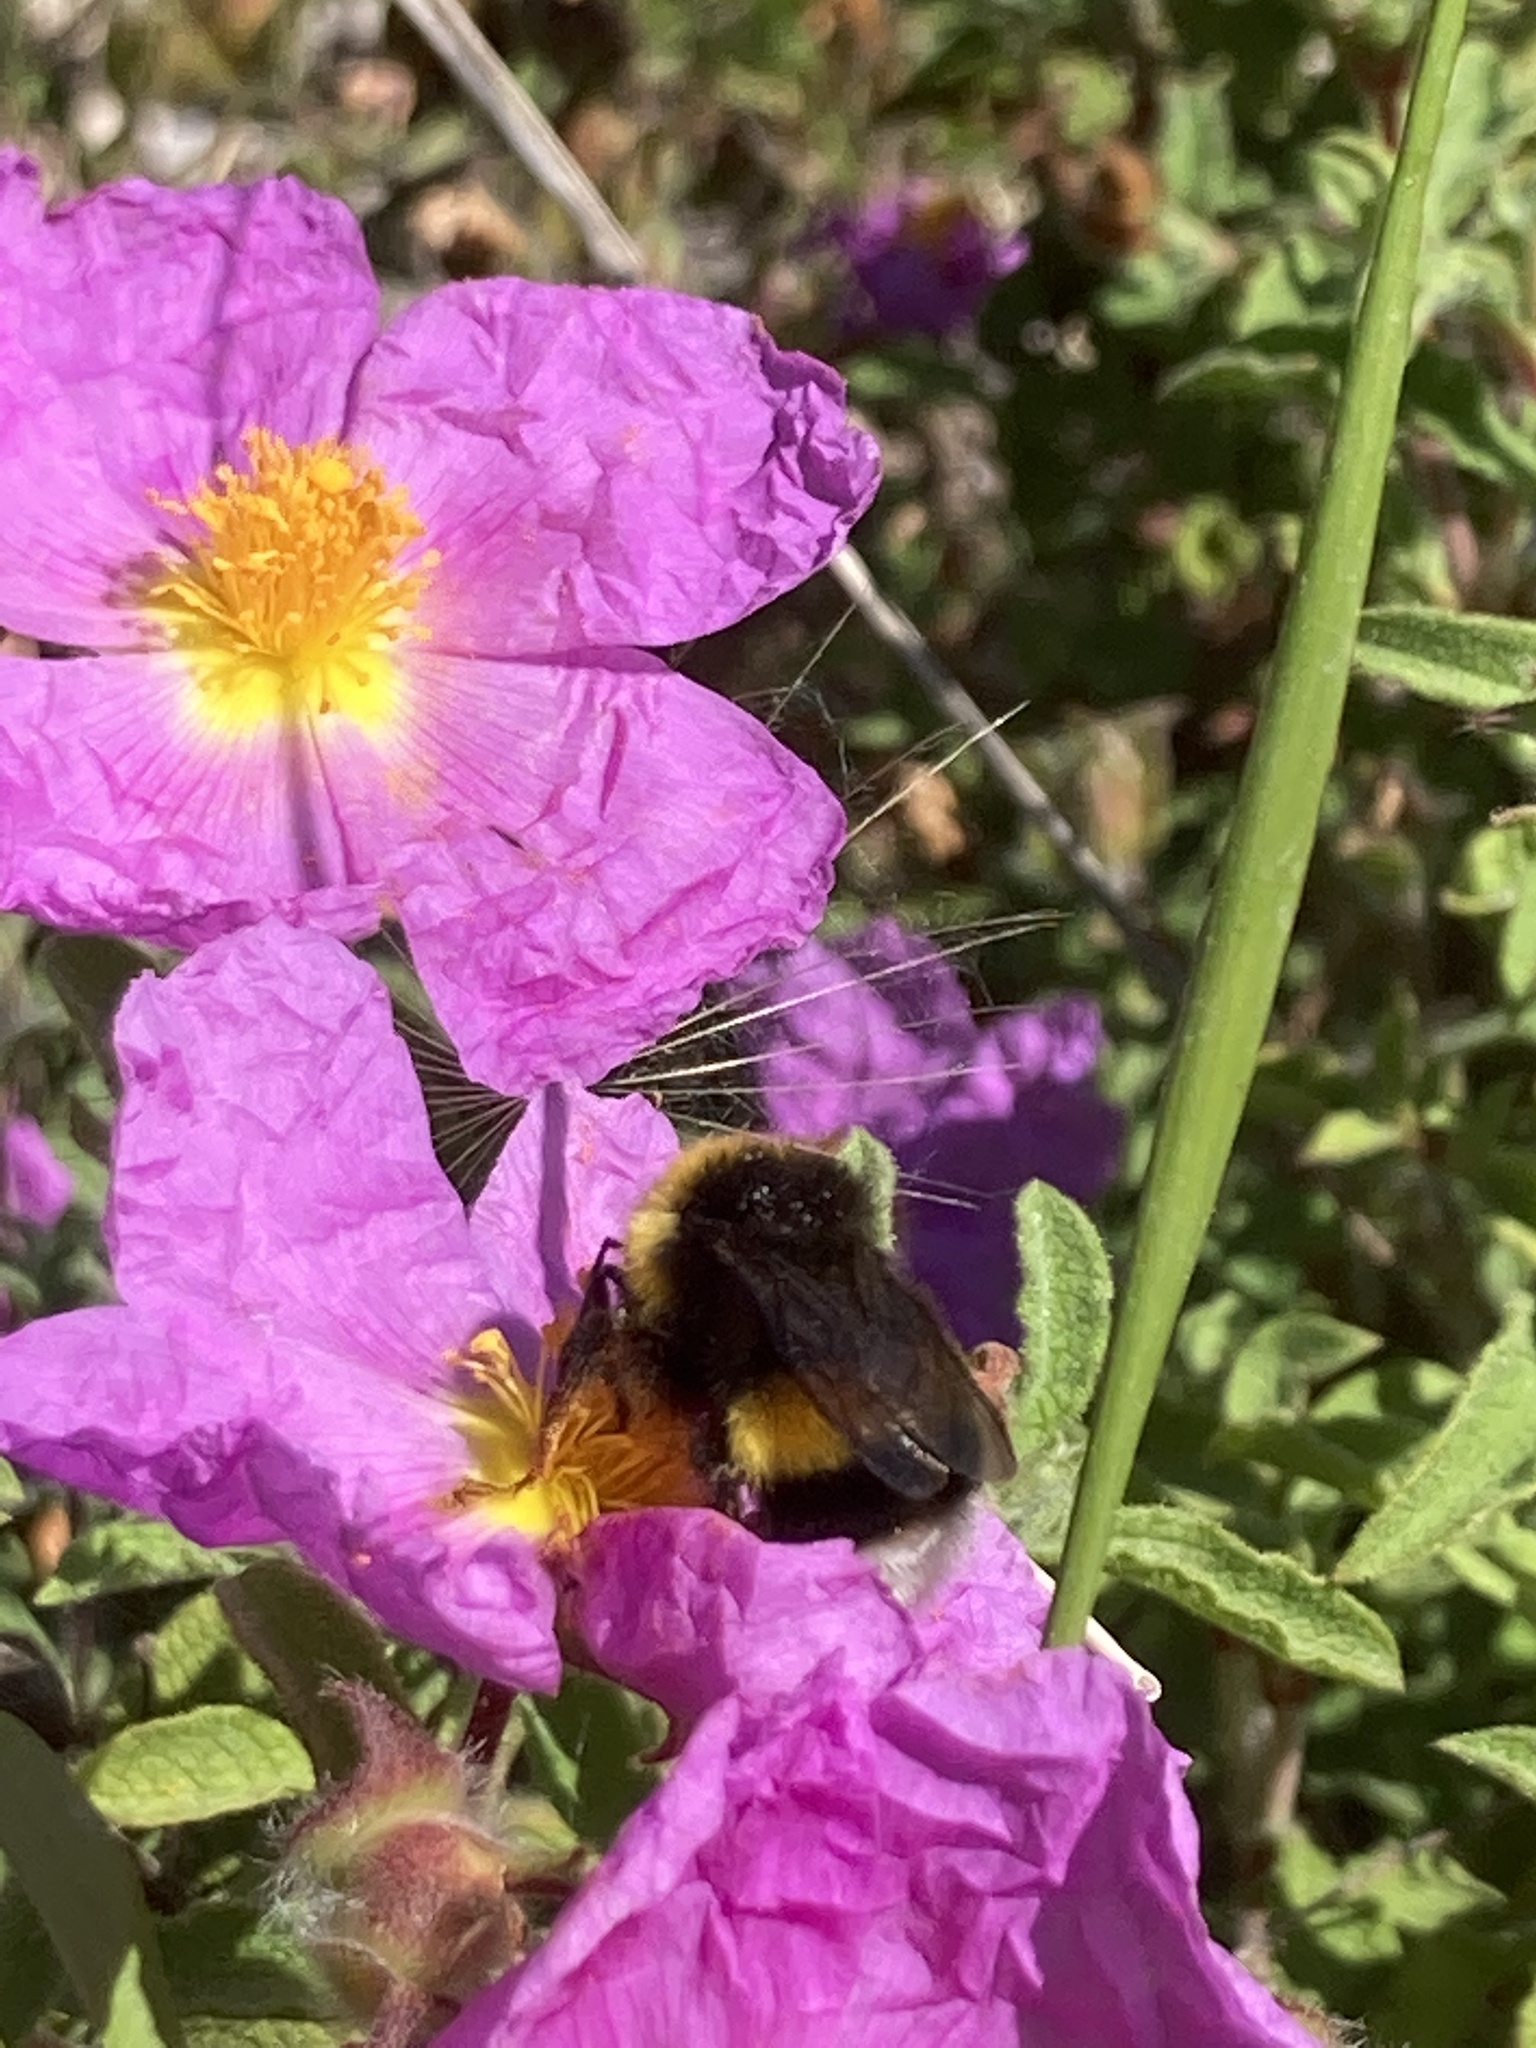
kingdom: Animalia
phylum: Arthropoda
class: Insecta
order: Hymenoptera
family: Apidae
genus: Bombus
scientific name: Bombus terrestris
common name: Buff-tailed bumblebee
